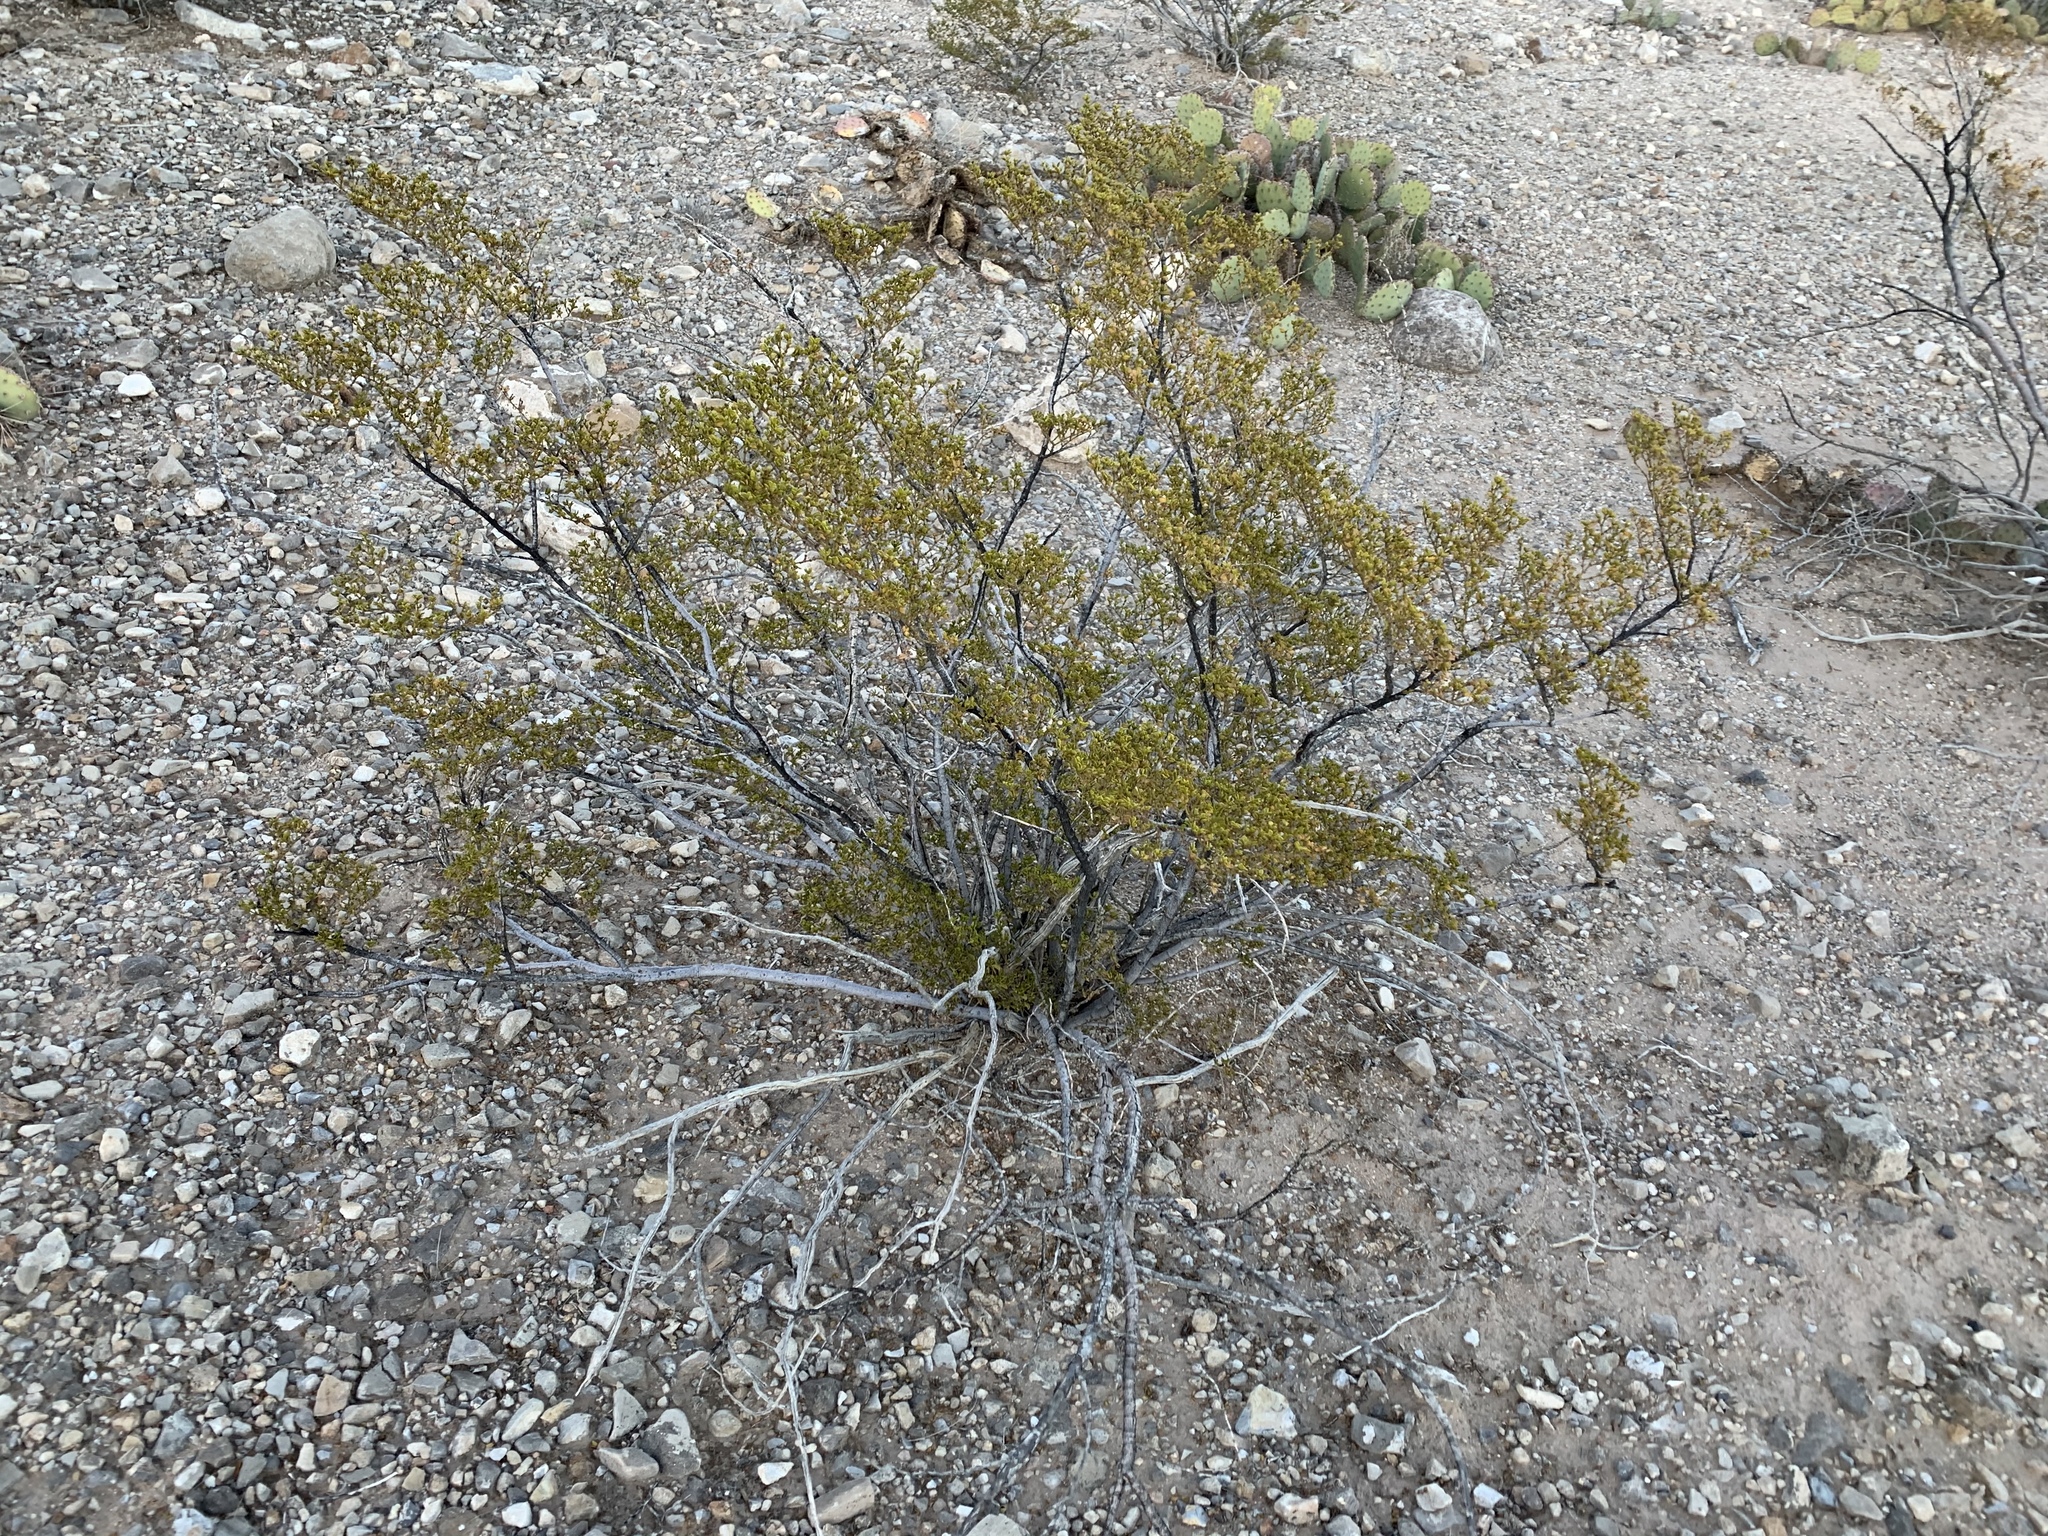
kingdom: Plantae
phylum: Tracheophyta
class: Magnoliopsida
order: Zygophyllales
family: Zygophyllaceae
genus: Larrea
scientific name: Larrea tridentata
